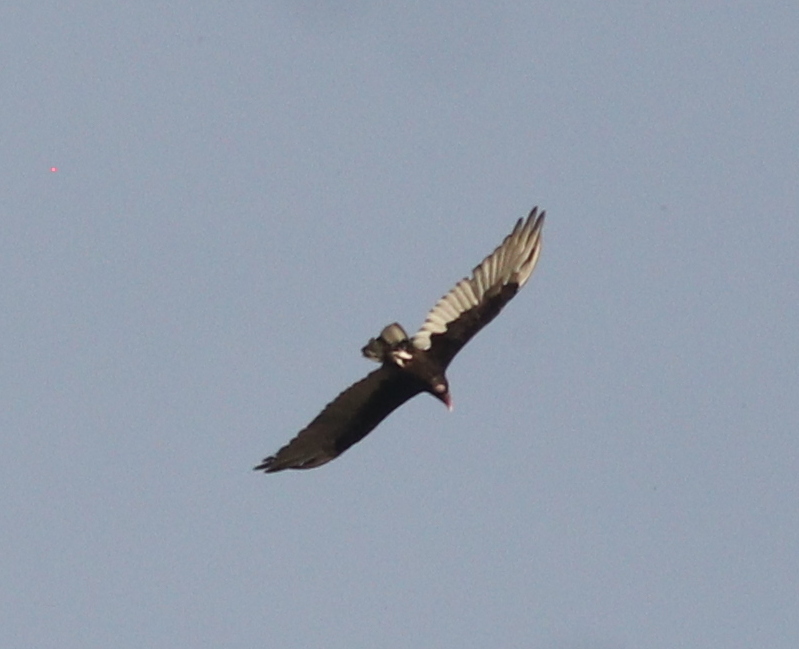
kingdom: Animalia
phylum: Chordata
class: Aves
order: Accipitriformes
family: Cathartidae
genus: Cathartes
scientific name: Cathartes aura
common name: Turkey vulture
